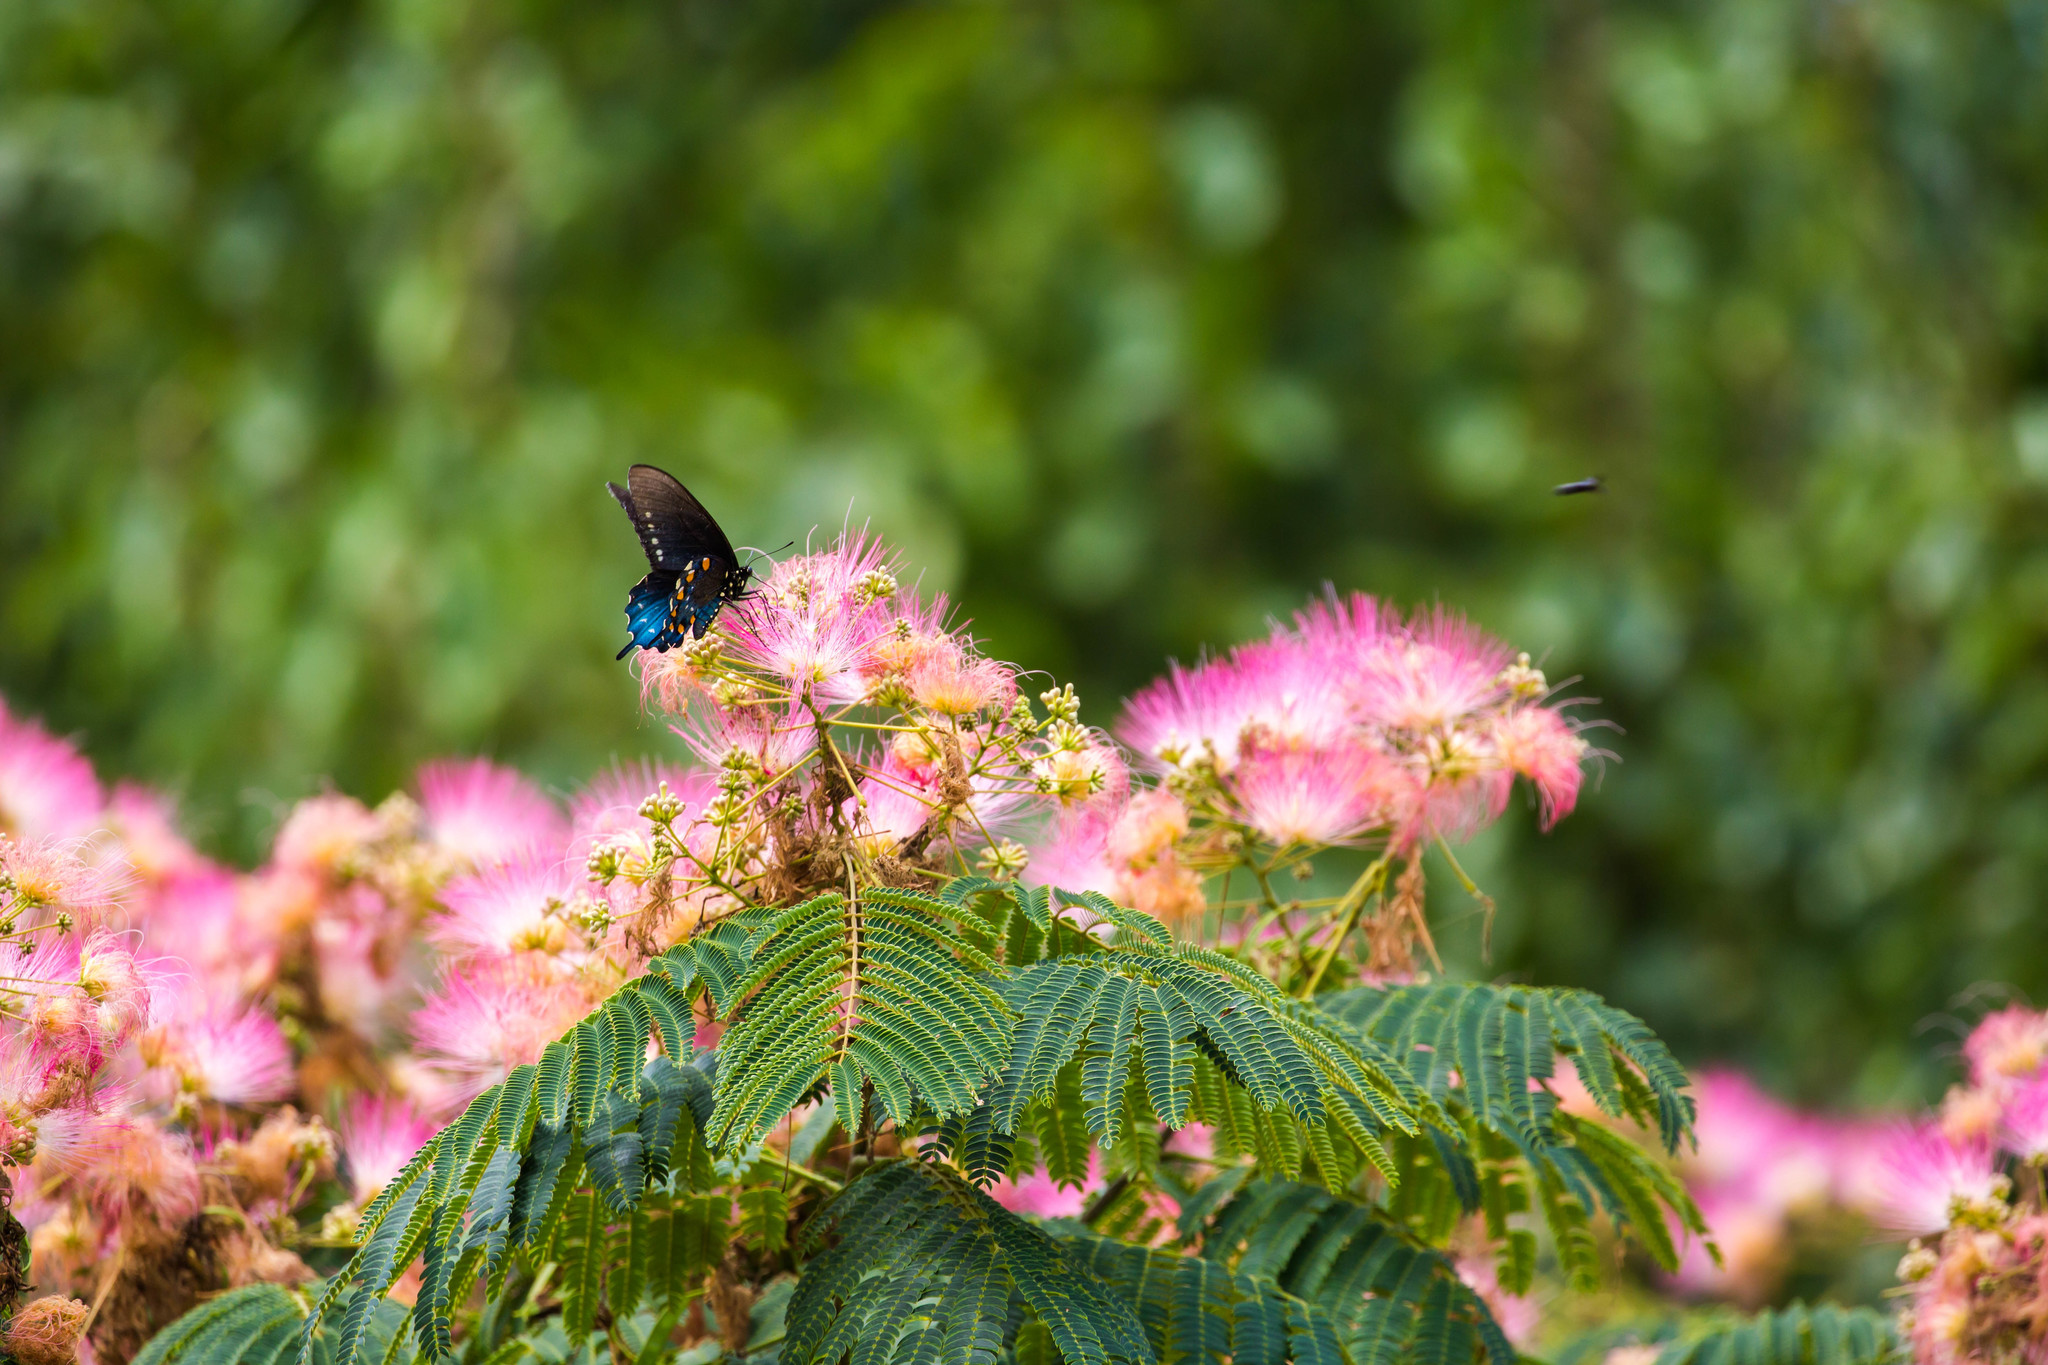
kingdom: Animalia
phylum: Arthropoda
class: Insecta
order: Lepidoptera
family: Papilionidae
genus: Battus
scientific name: Battus philenor
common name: Pipevine swallowtail
